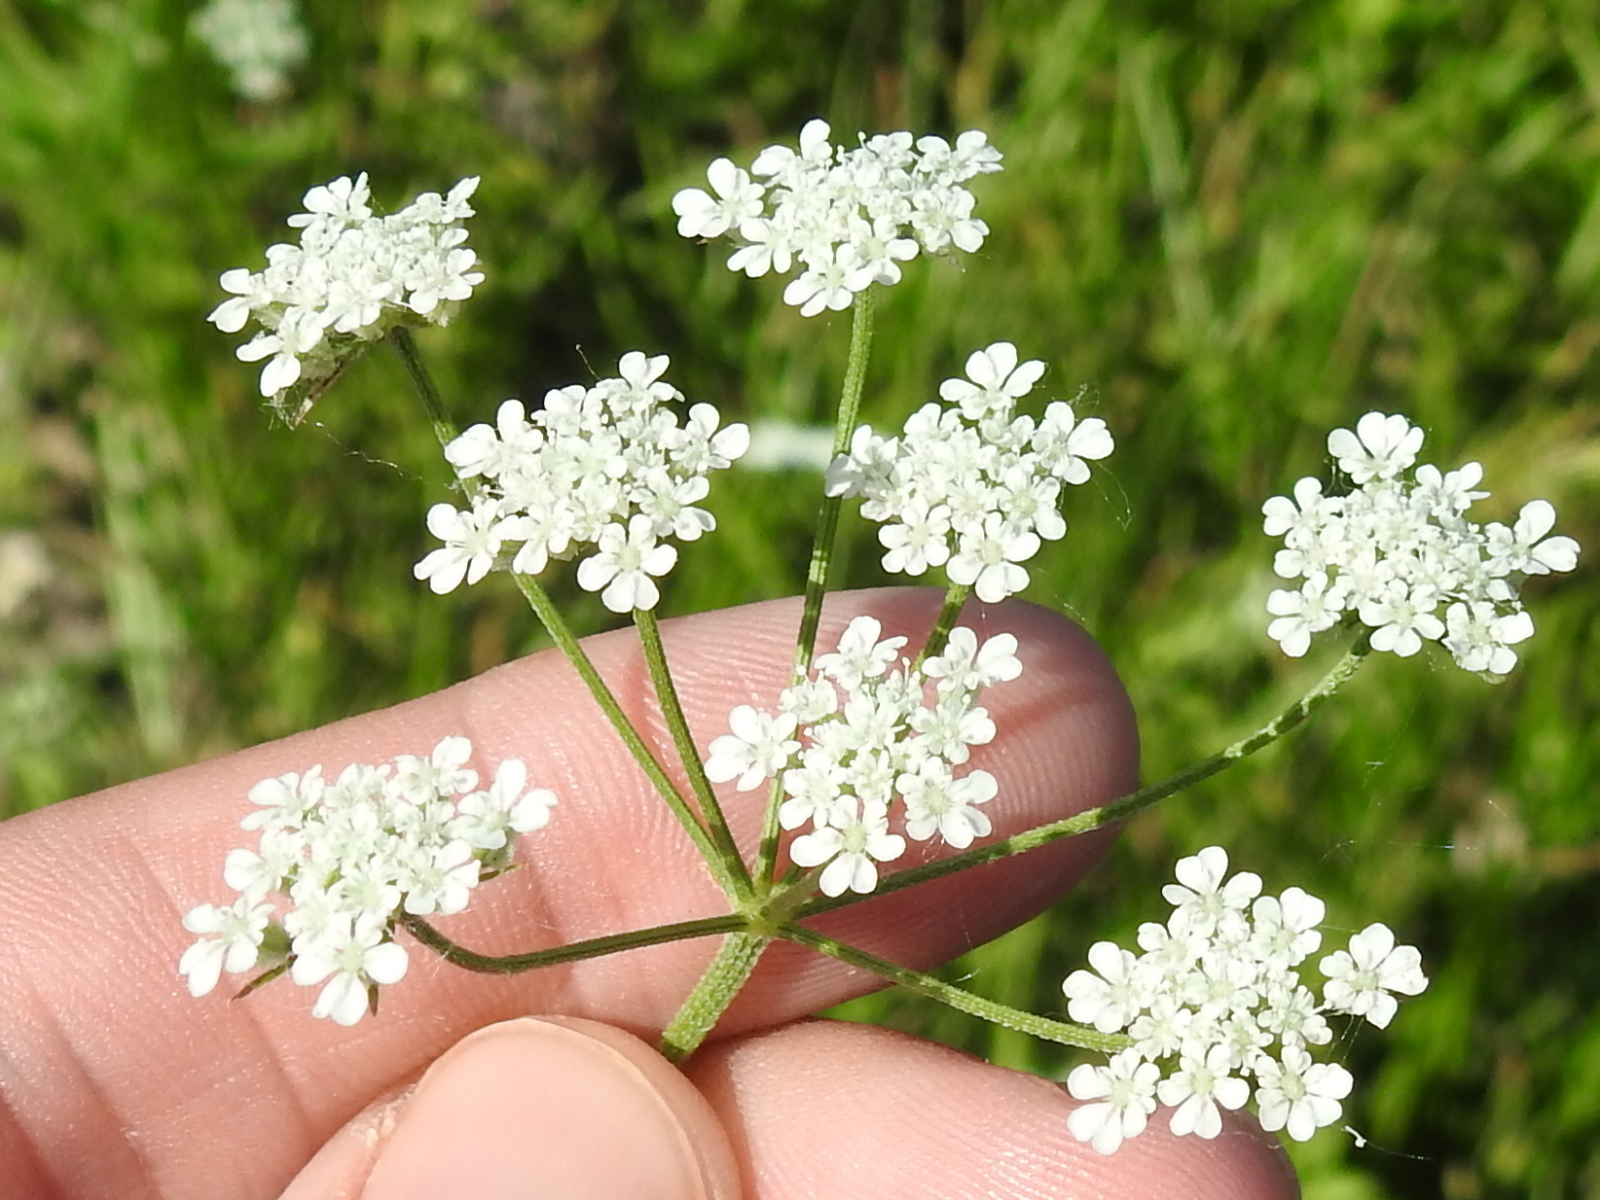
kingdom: Plantae
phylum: Tracheophyta
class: Magnoliopsida
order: Apiales
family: Apiaceae
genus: Torilis
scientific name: Torilis arvensis
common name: Spreading hedge-parsley
